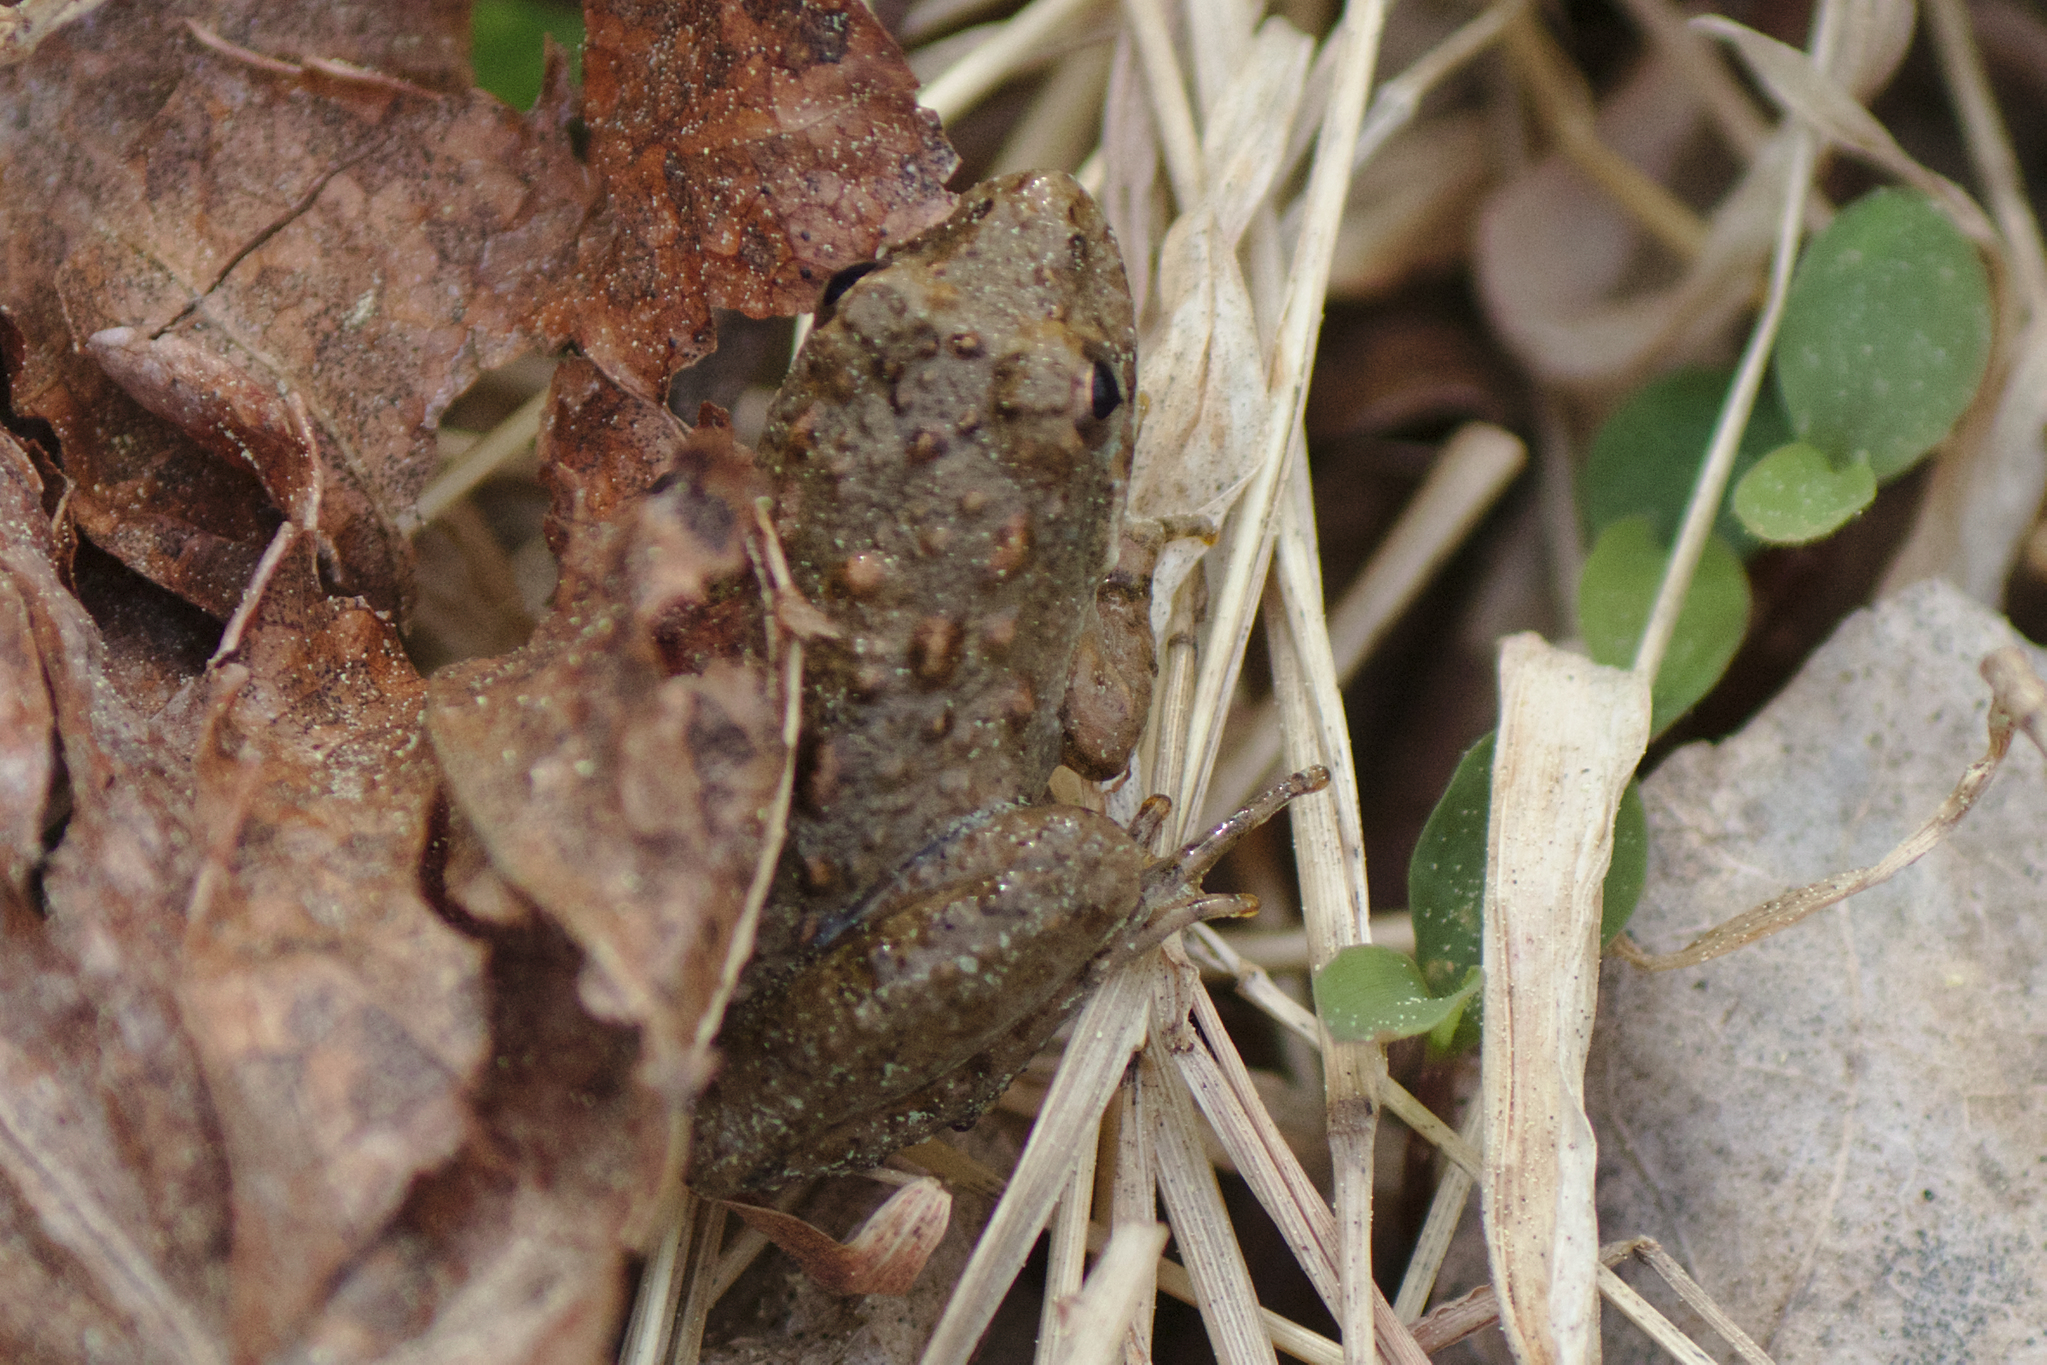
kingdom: Animalia
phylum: Chordata
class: Amphibia
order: Anura
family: Hylidae
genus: Acris
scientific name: Acris crepitans
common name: Northern cricket frog
